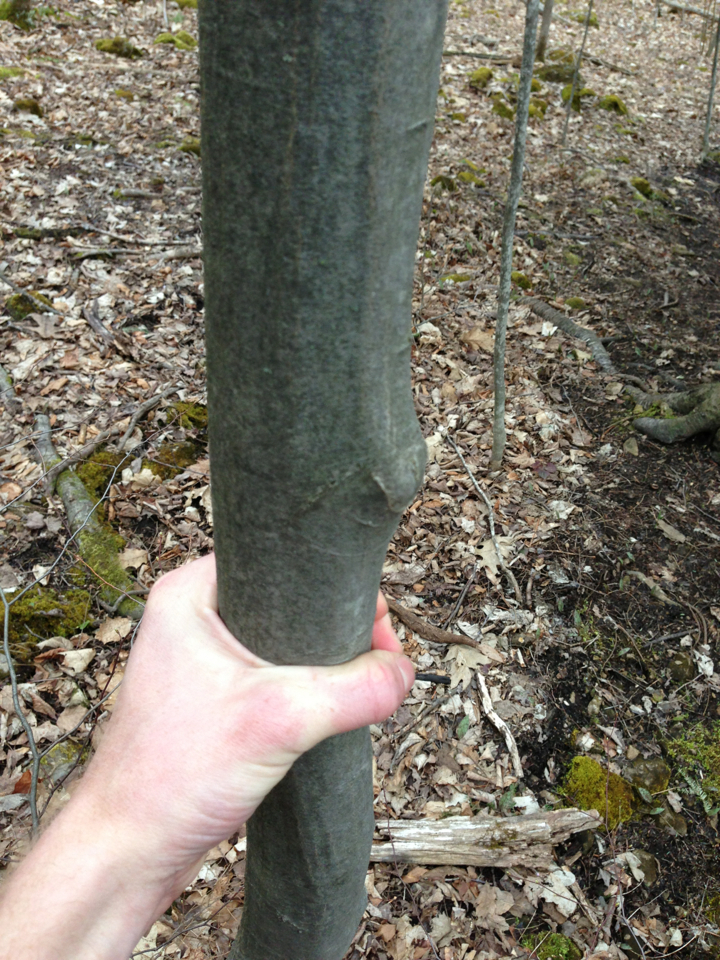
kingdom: Plantae
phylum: Tracheophyta
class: Magnoliopsida
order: Fagales
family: Betulaceae
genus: Carpinus
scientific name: Carpinus caroliniana
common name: American hornbeam
